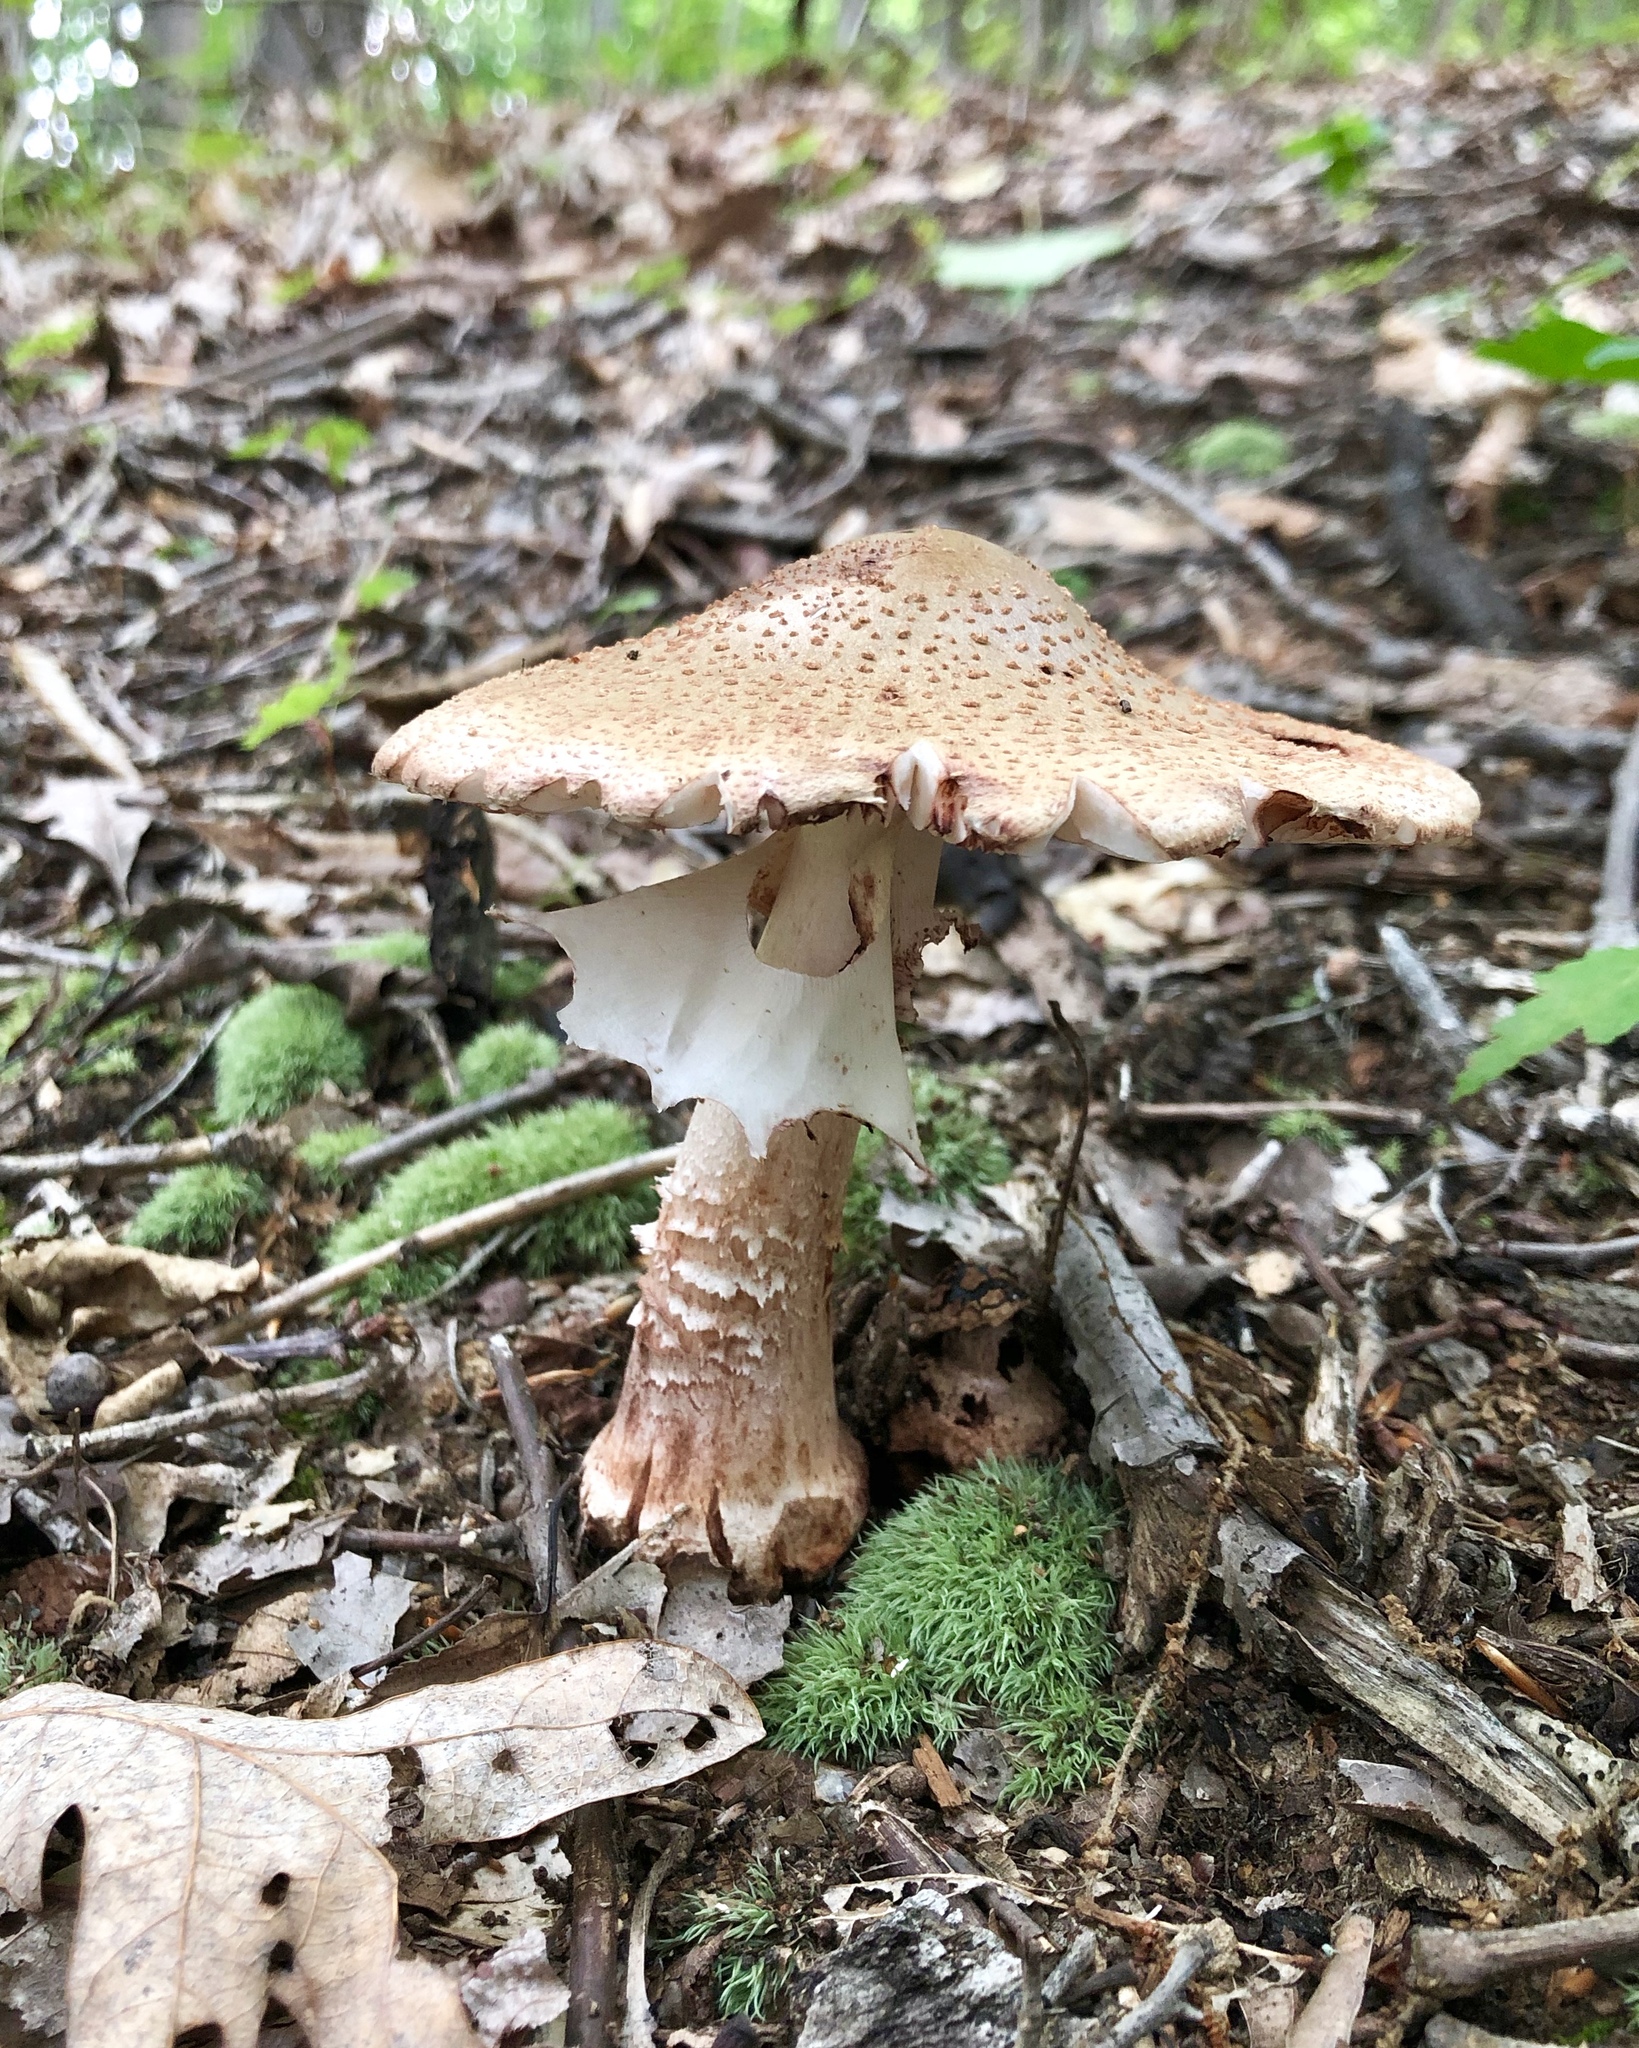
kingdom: Fungi
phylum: Basidiomycota
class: Agaricomycetes
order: Agaricales
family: Amanitaceae
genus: Amanita
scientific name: Amanita rubescens
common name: Blusher
